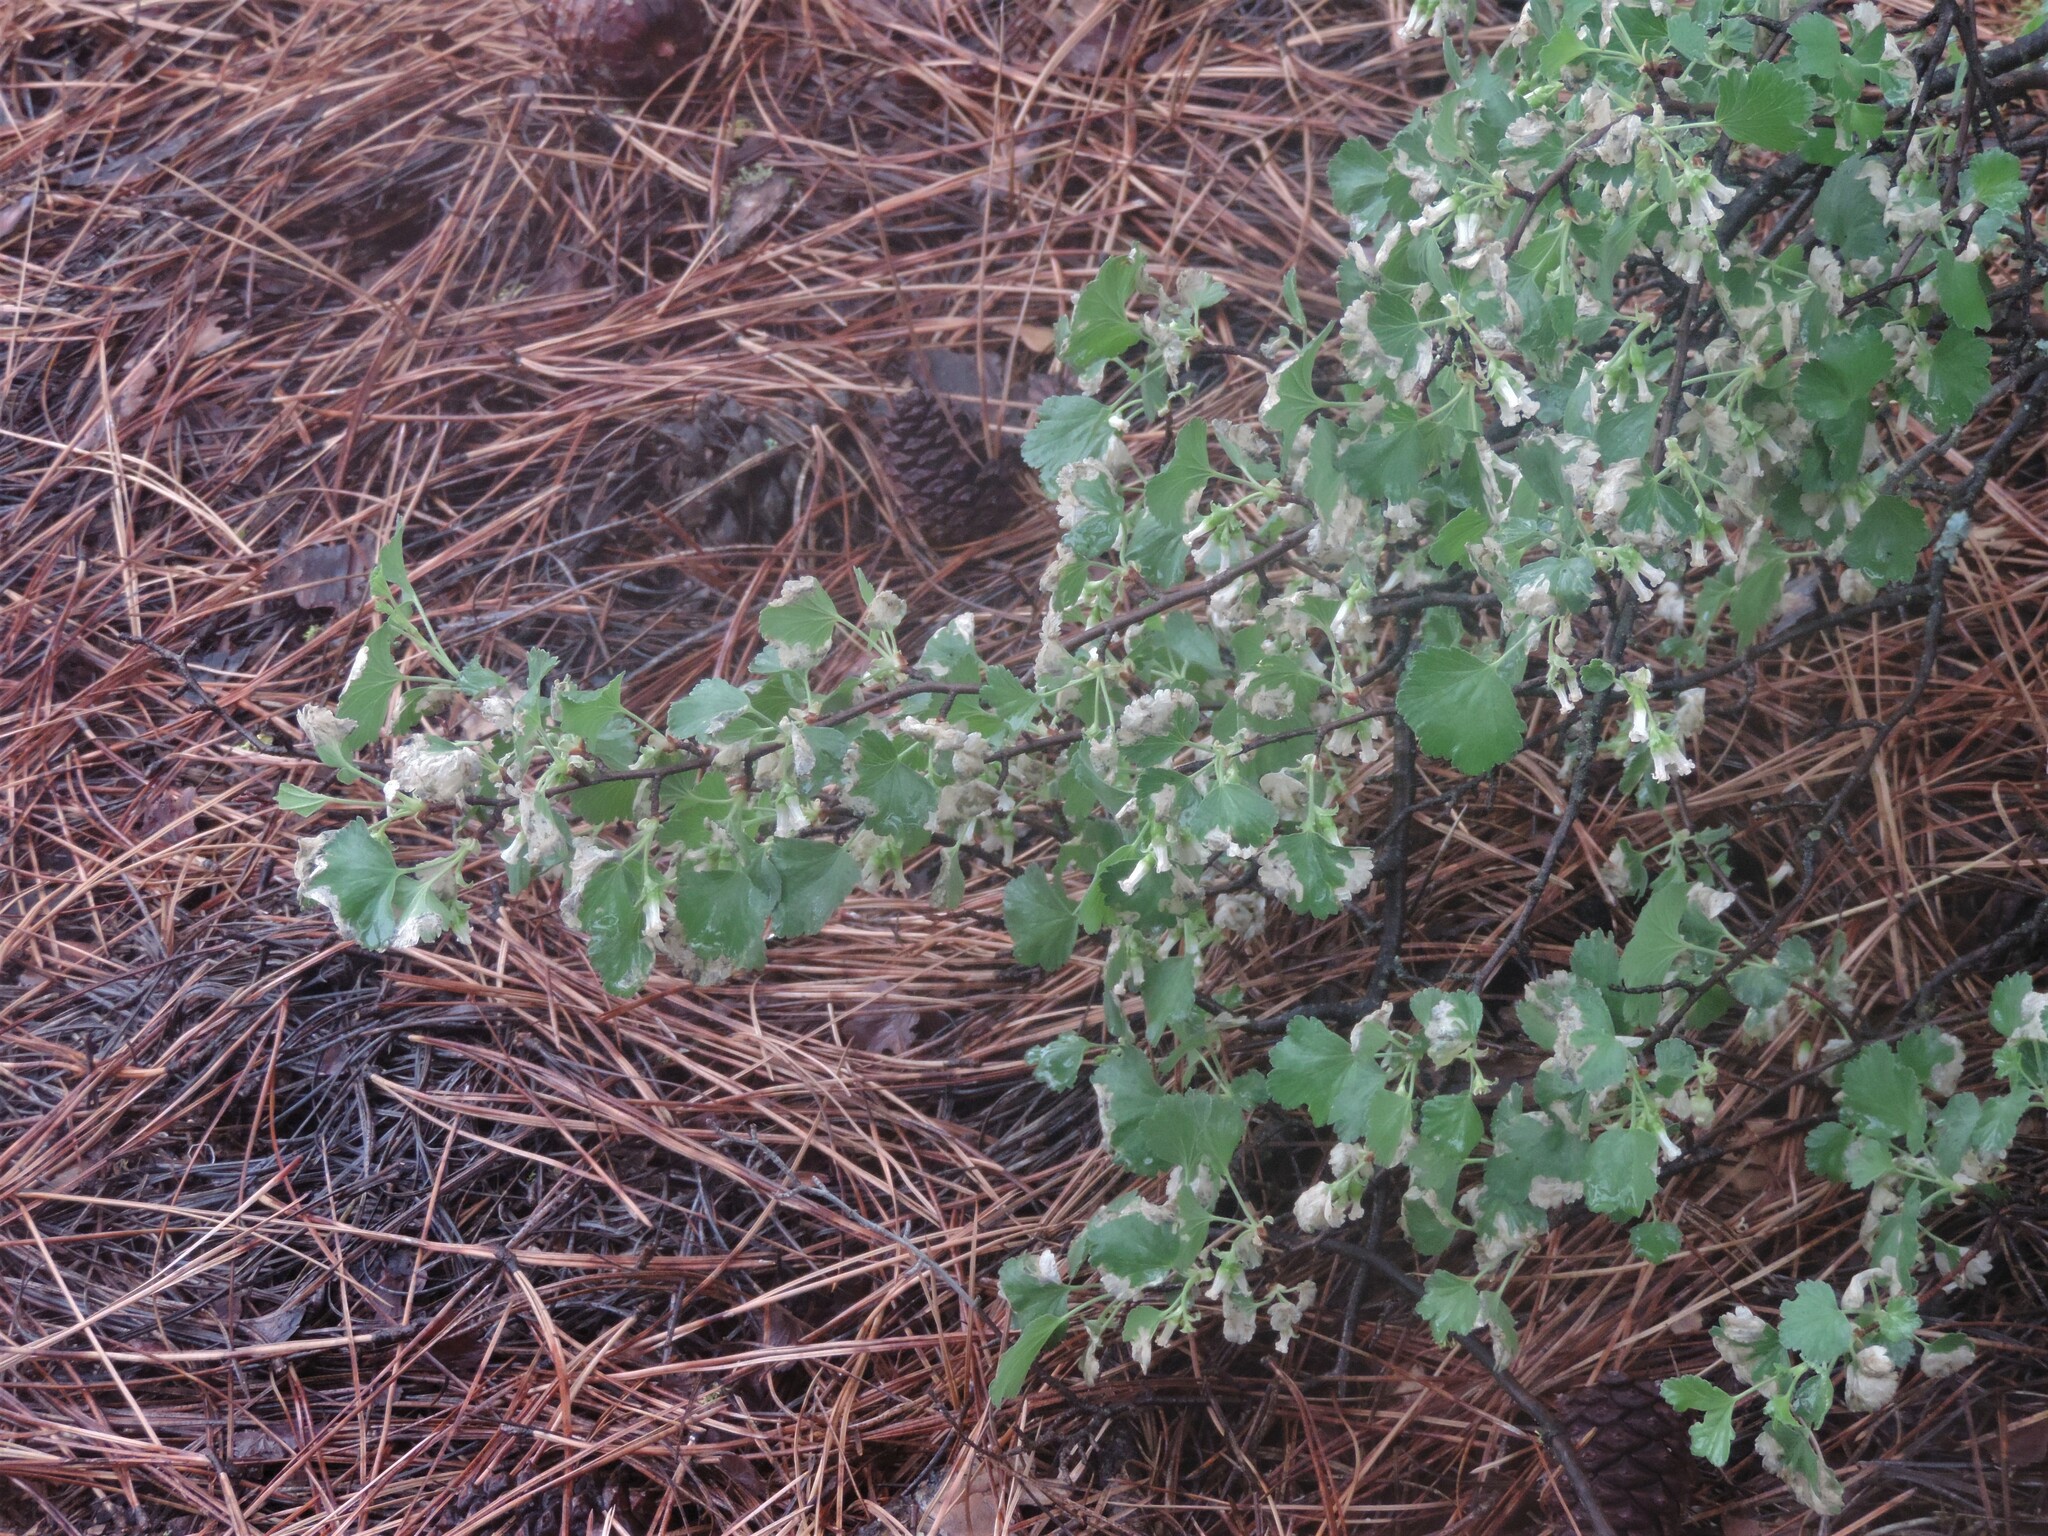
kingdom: Plantae
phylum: Tracheophyta
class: Magnoliopsida
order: Saxifragales
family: Grossulariaceae
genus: Ribes
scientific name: Ribes cereum
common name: Wax currant
